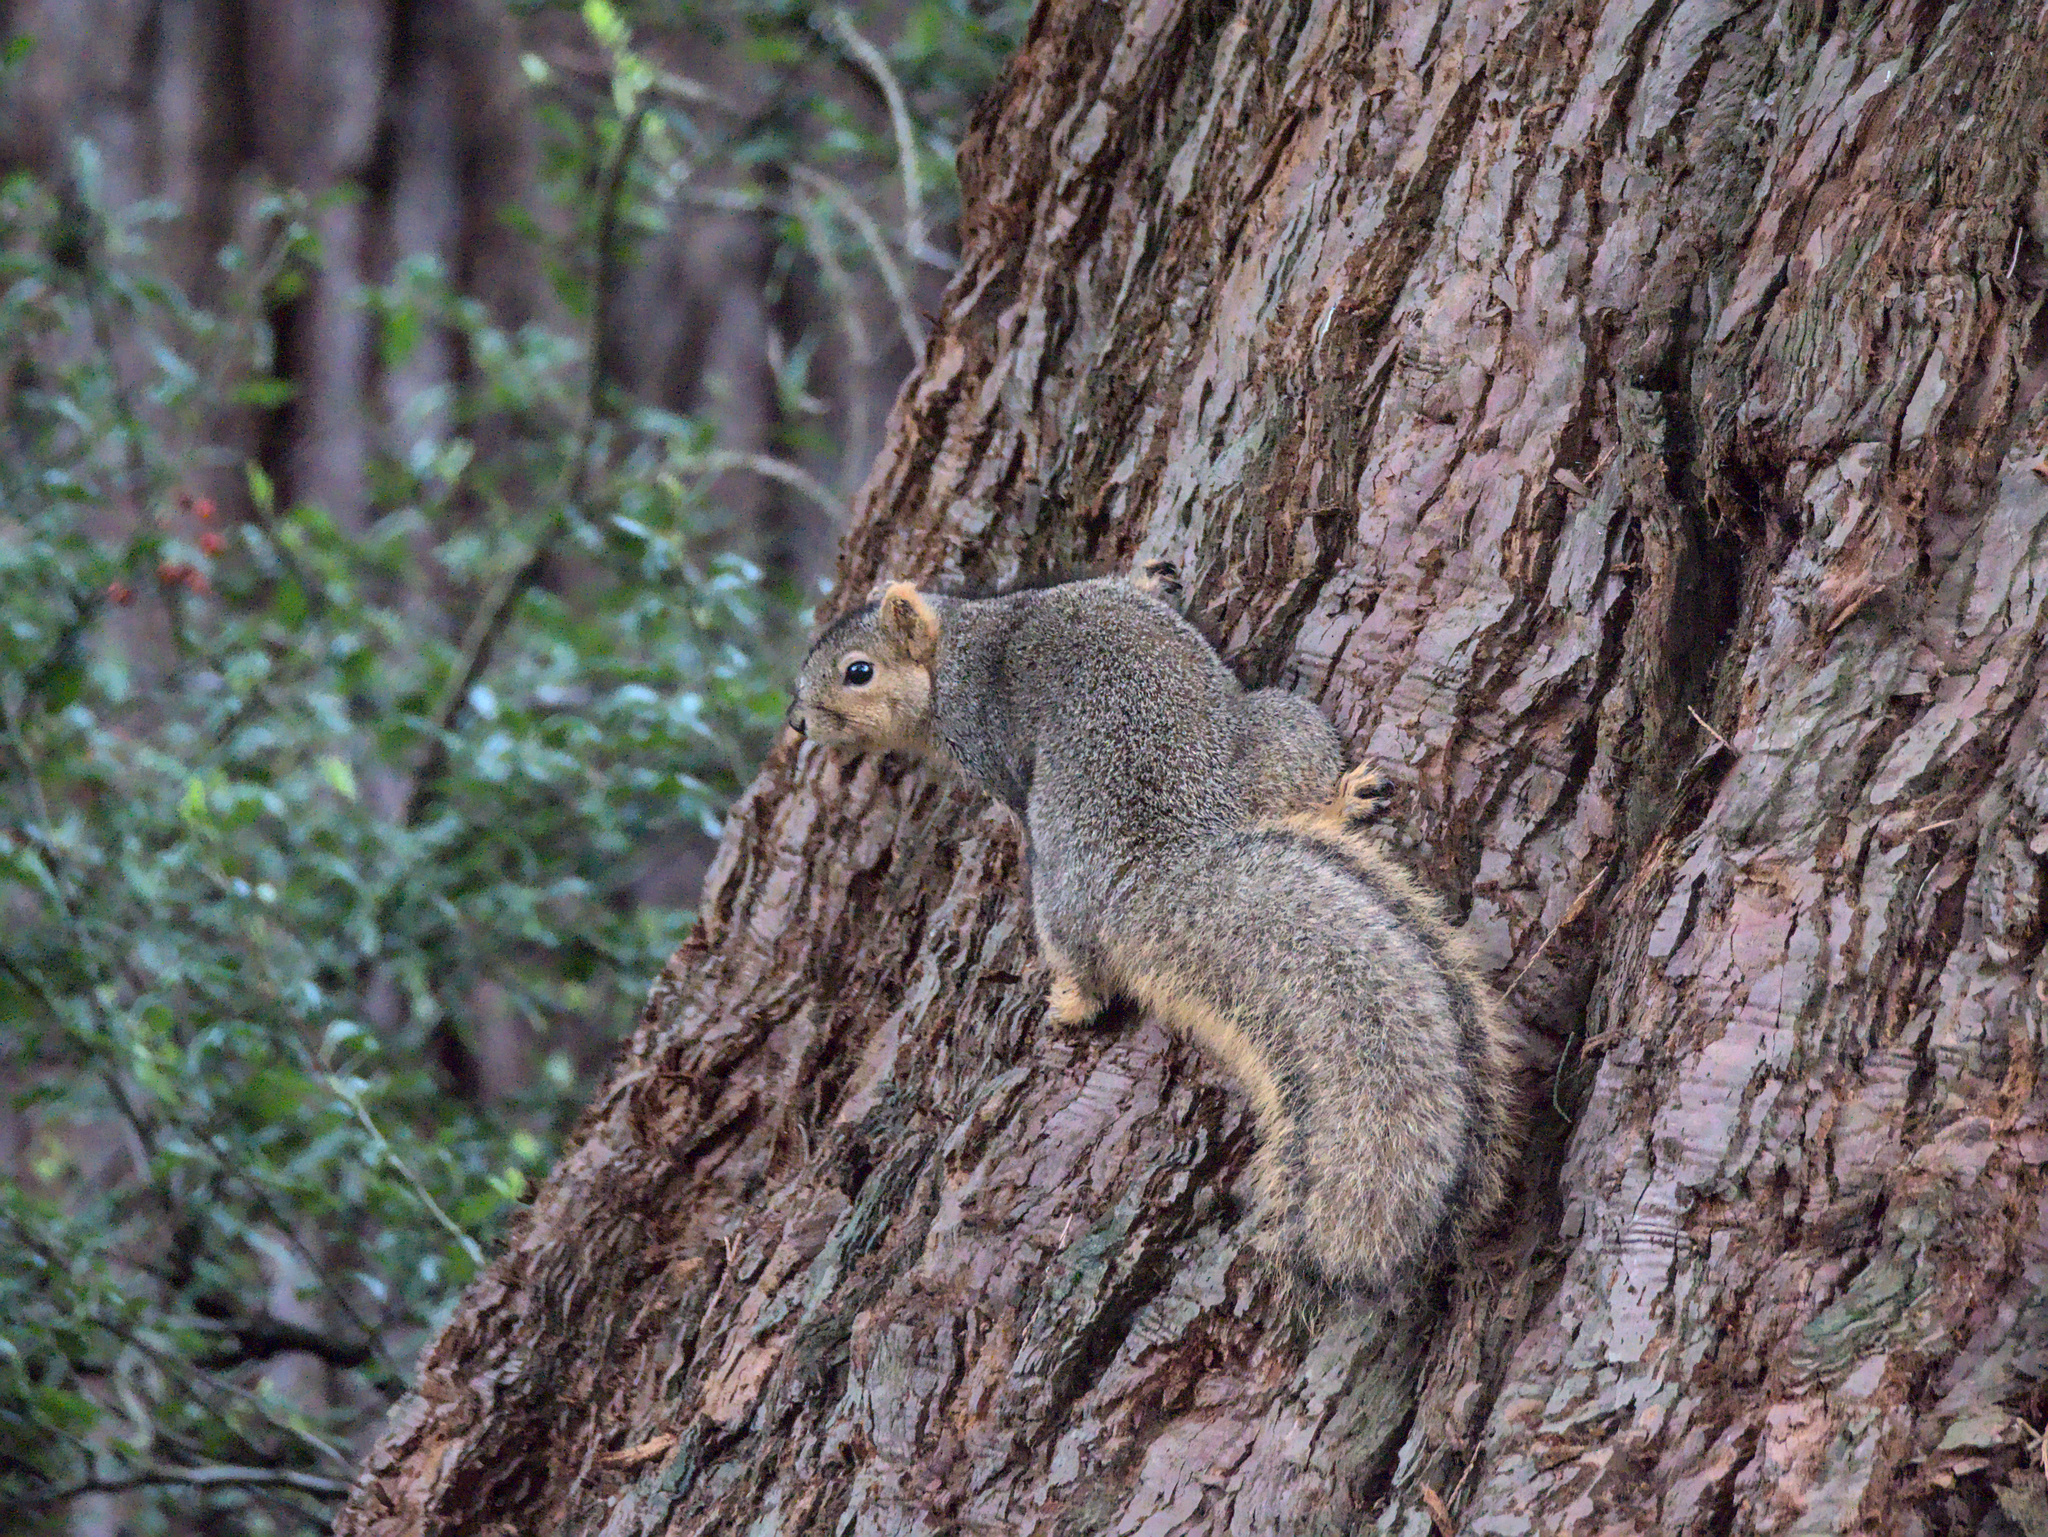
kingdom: Animalia
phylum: Chordata
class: Mammalia
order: Rodentia
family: Sciuridae
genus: Sciurus
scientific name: Sciurus niger
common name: Fox squirrel
